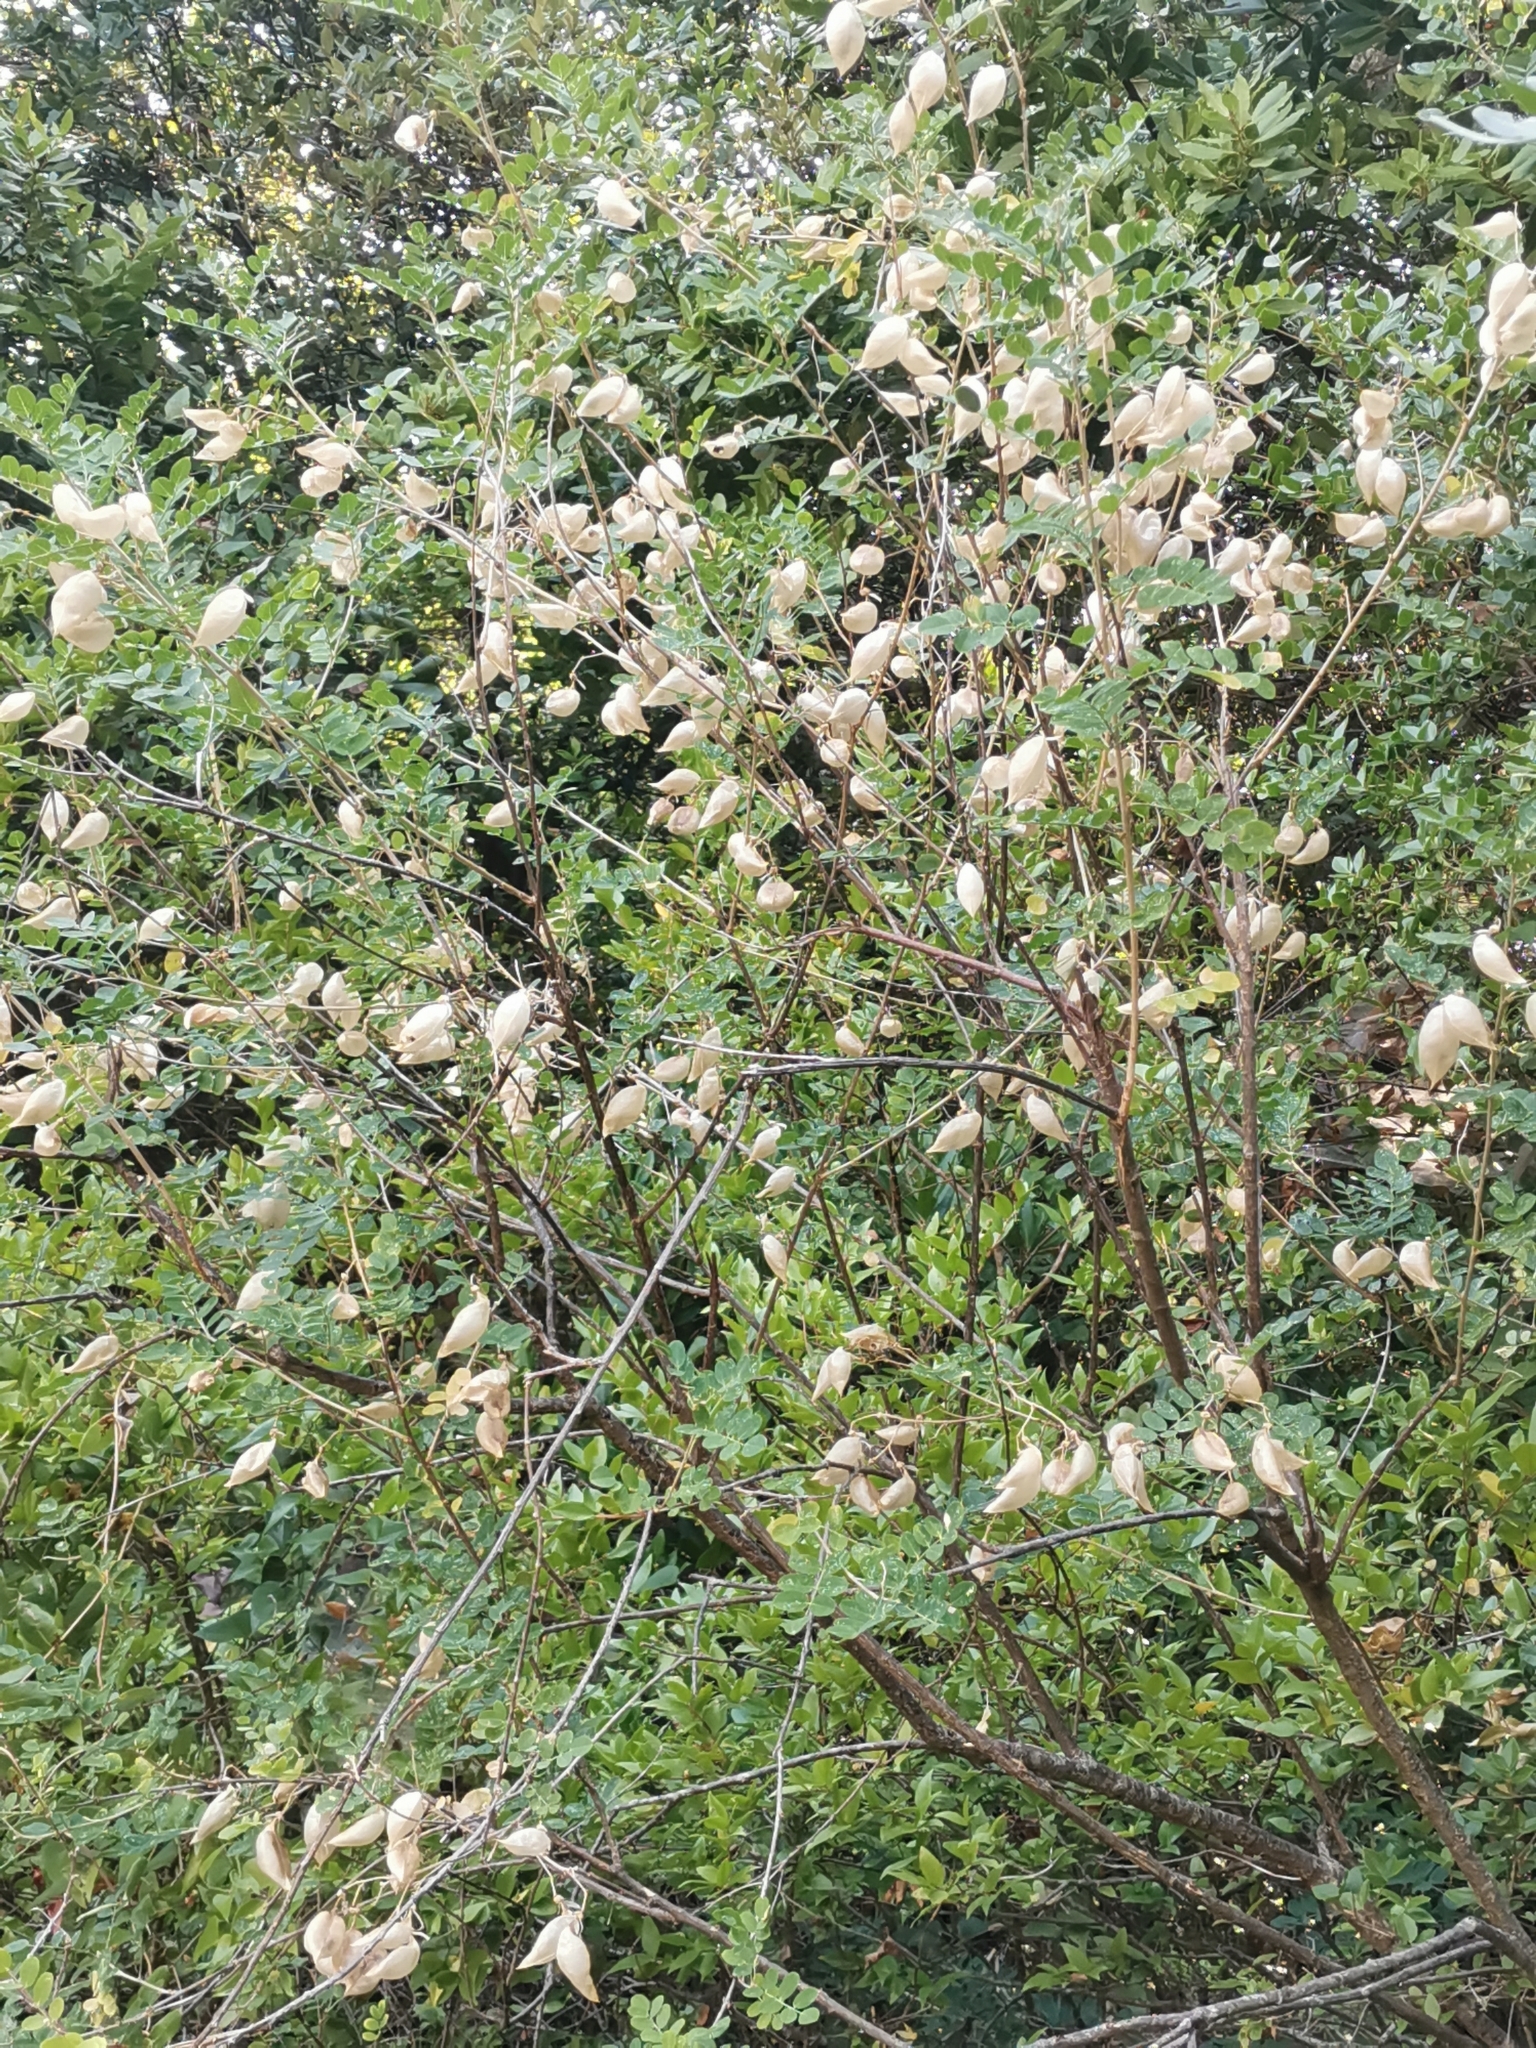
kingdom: Plantae
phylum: Tracheophyta
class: Magnoliopsida
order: Fabales
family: Fabaceae
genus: Colutea
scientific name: Colutea arborescens
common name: Bladder-senna
